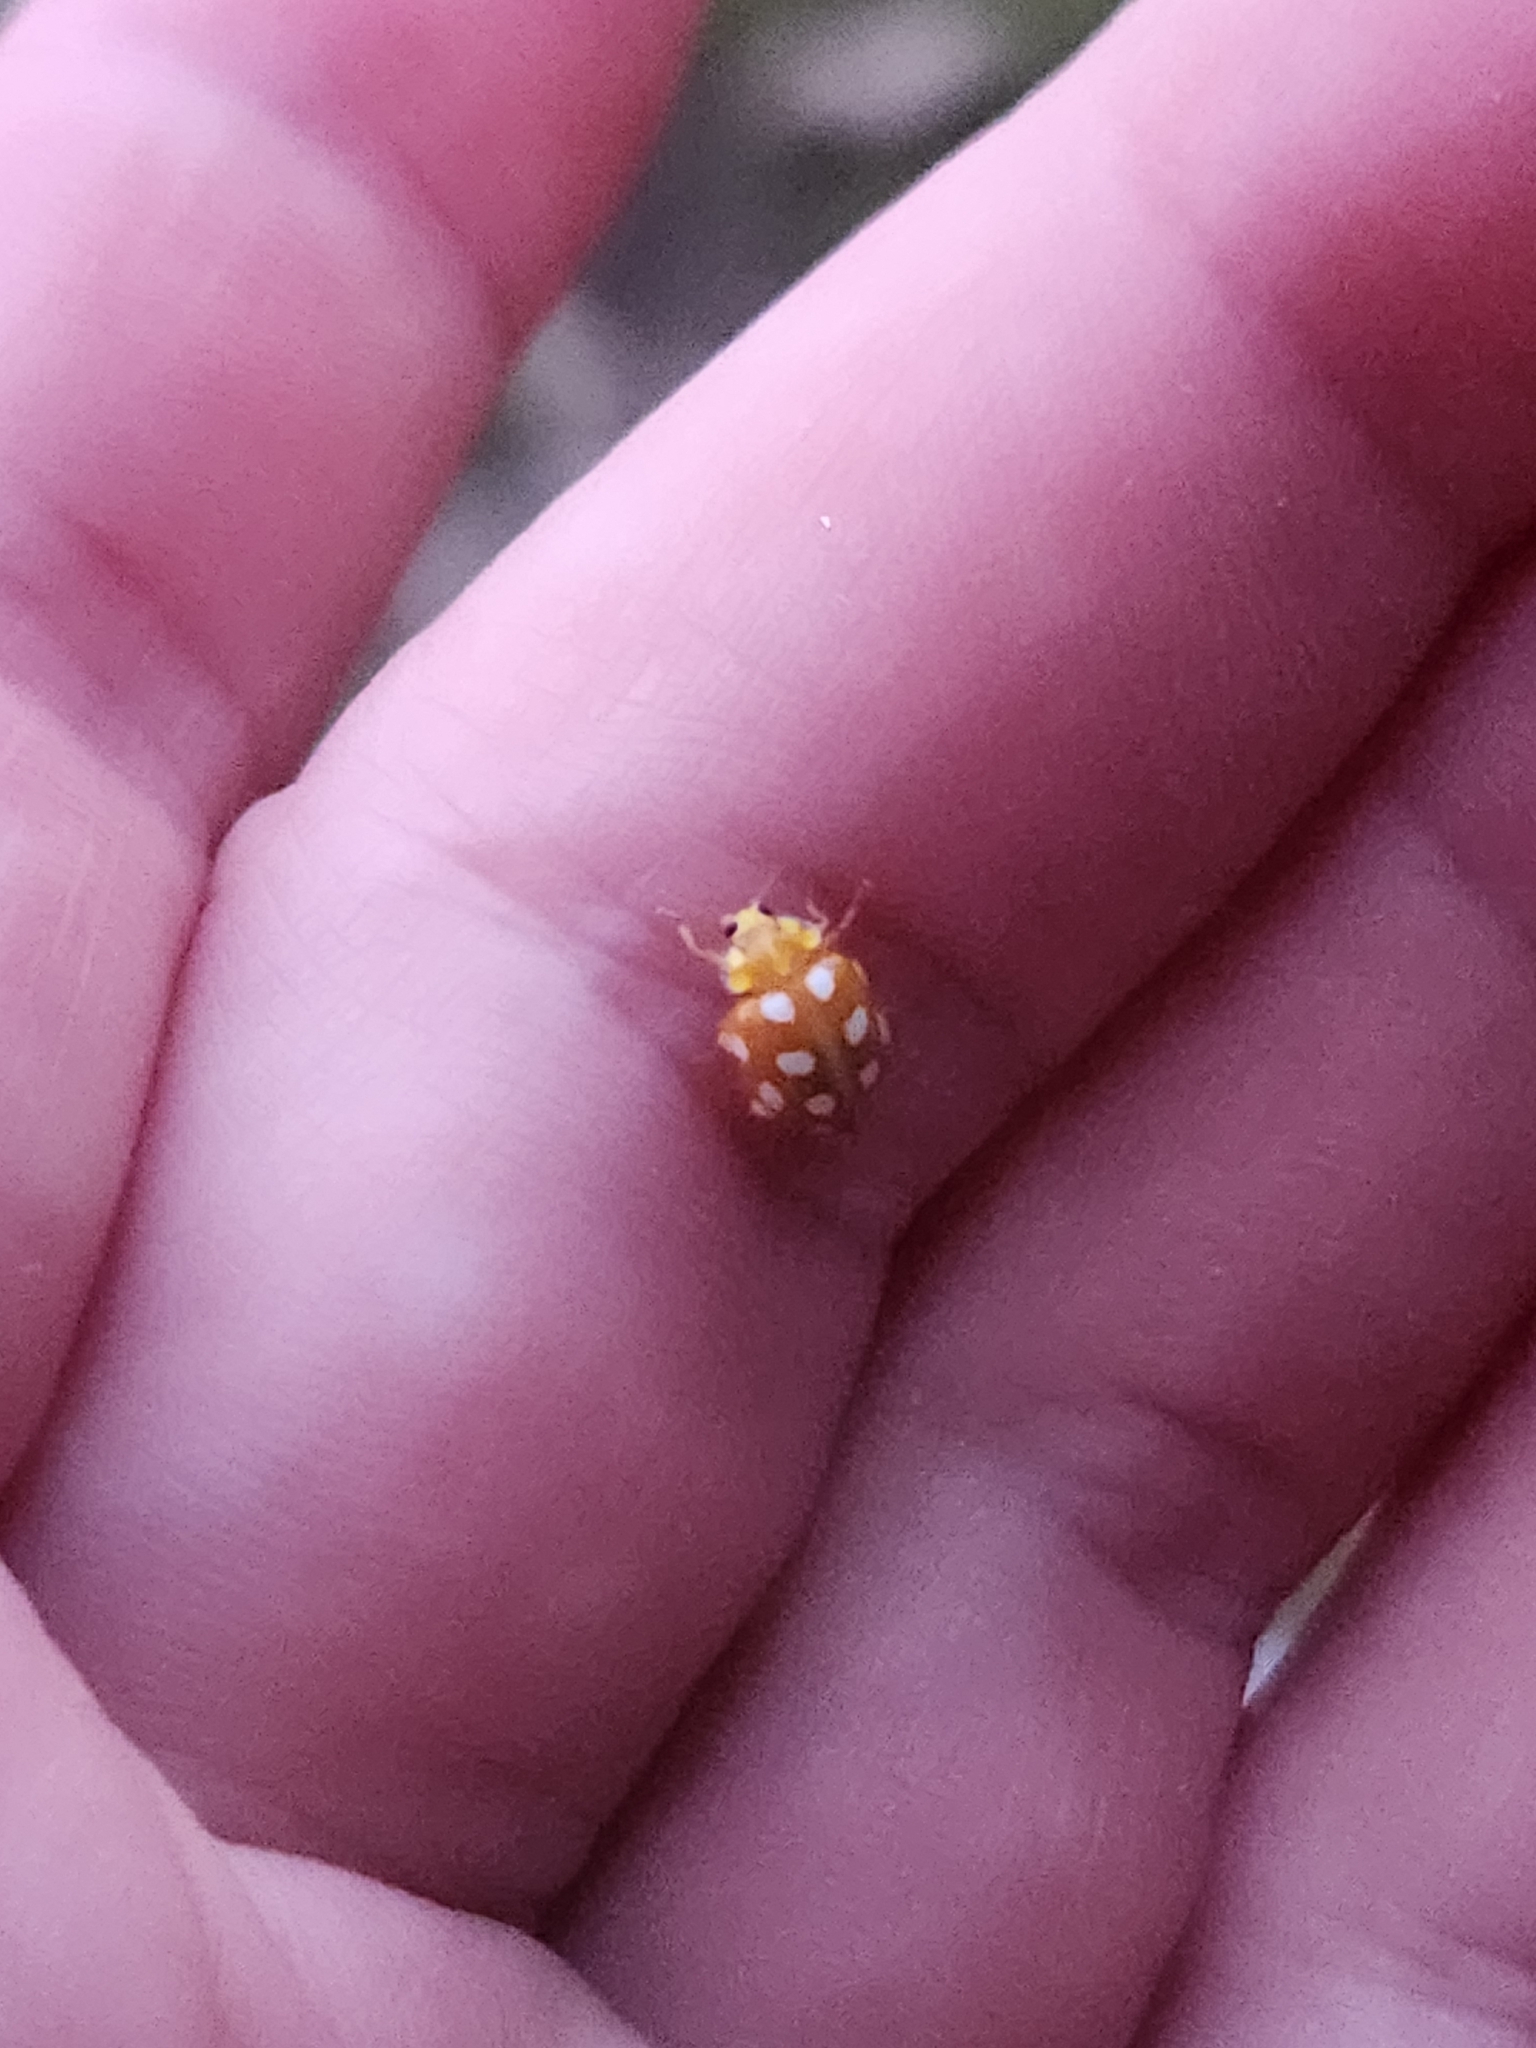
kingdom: Animalia
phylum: Arthropoda
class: Insecta
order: Coleoptera
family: Coccinellidae
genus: Halyzia
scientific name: Halyzia sedecimguttata
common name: Orange ladybird
